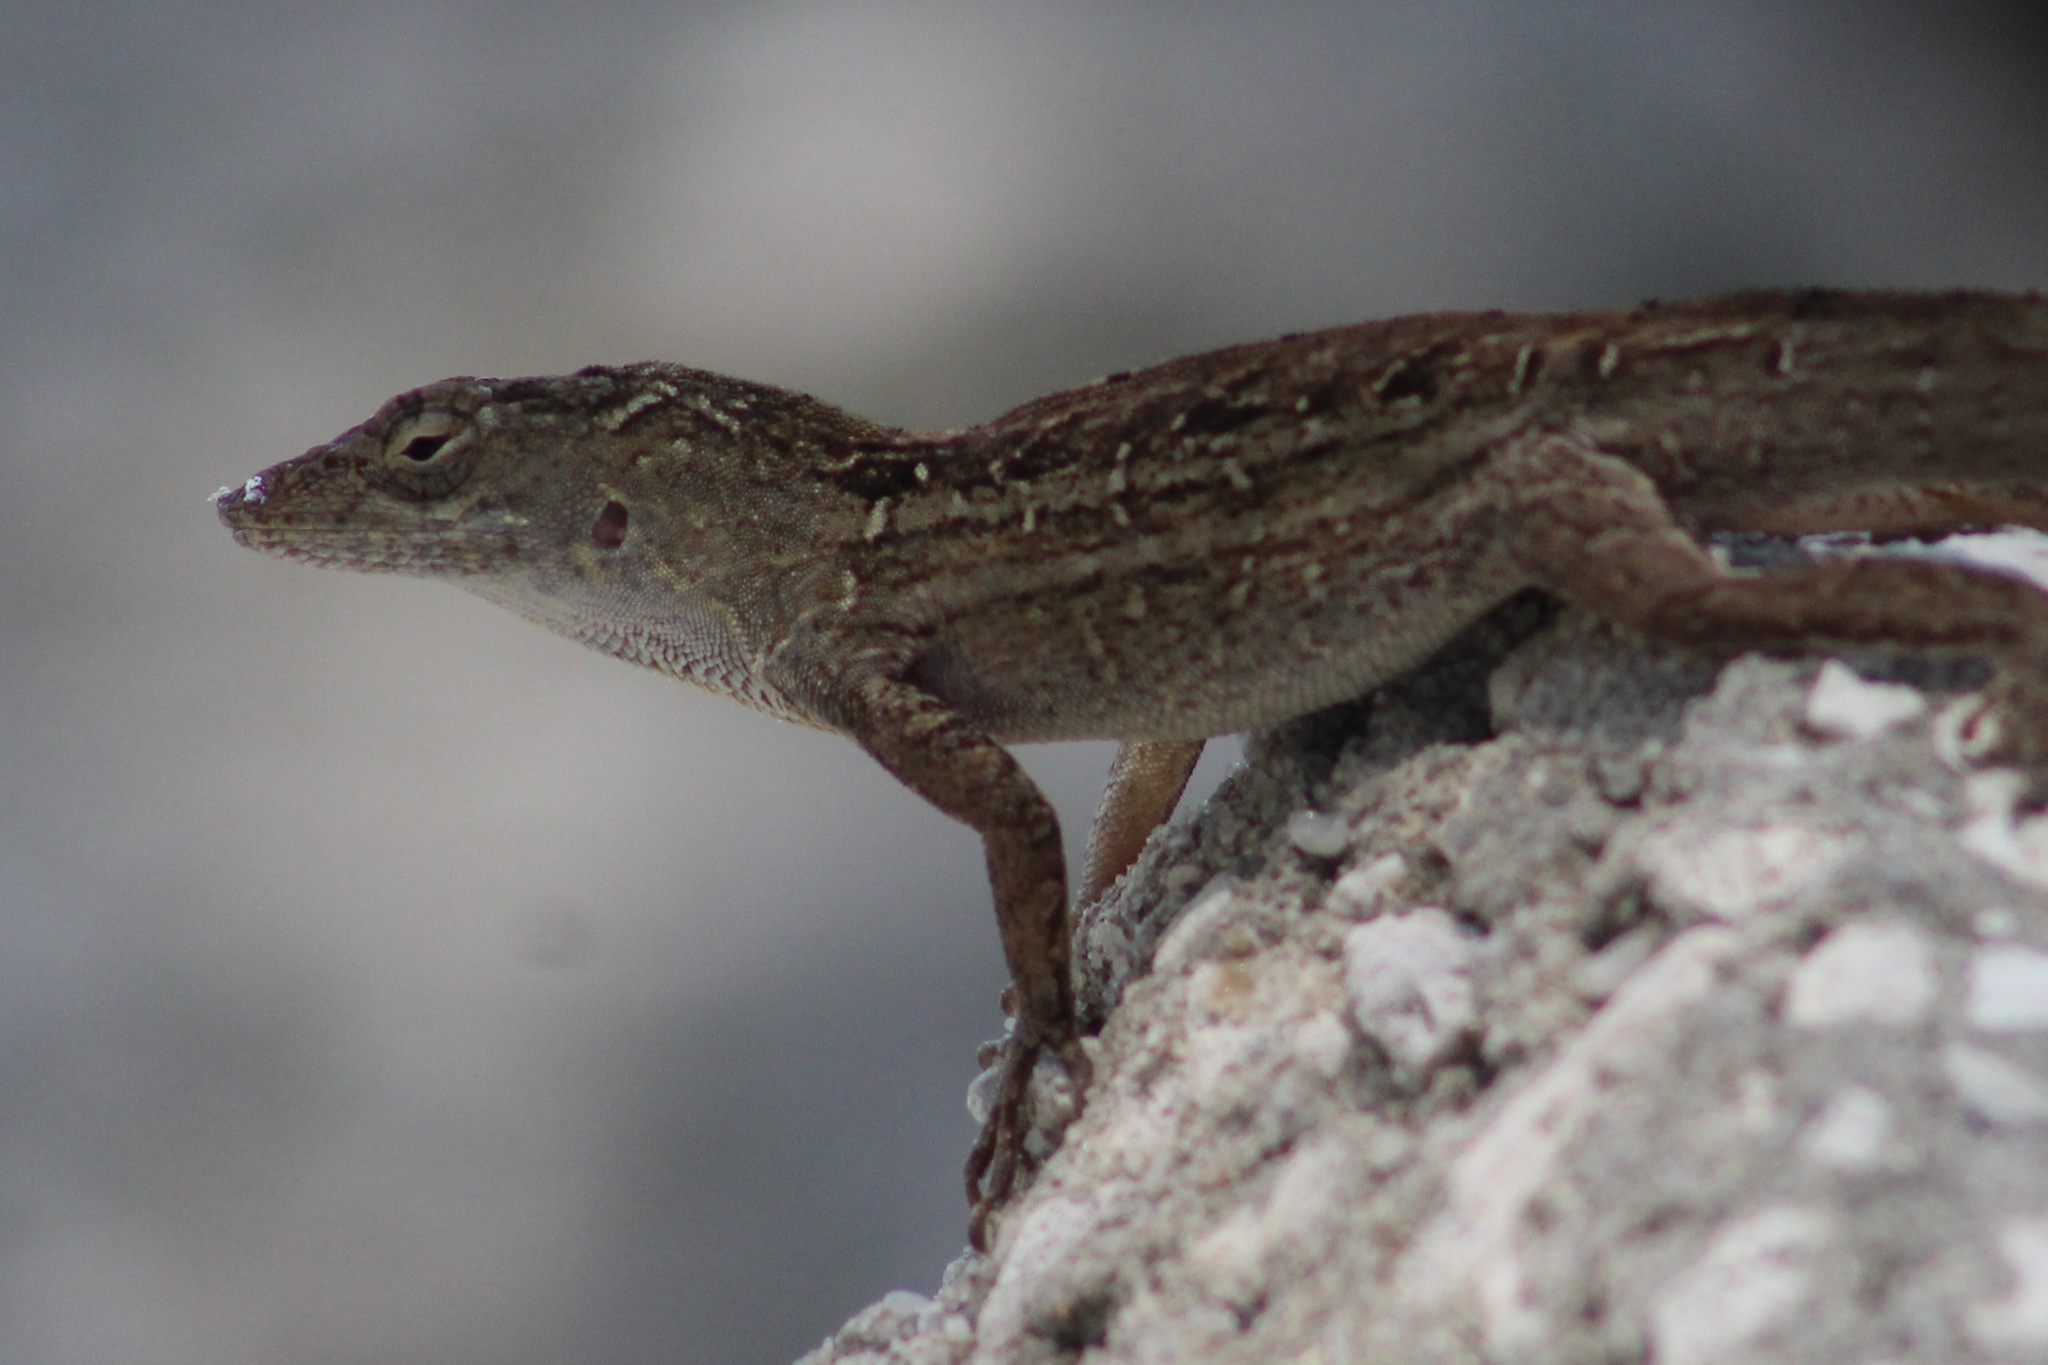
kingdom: Animalia
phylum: Chordata
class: Squamata
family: Dactyloidae
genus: Anolis
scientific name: Anolis sagrei
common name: Brown anole
